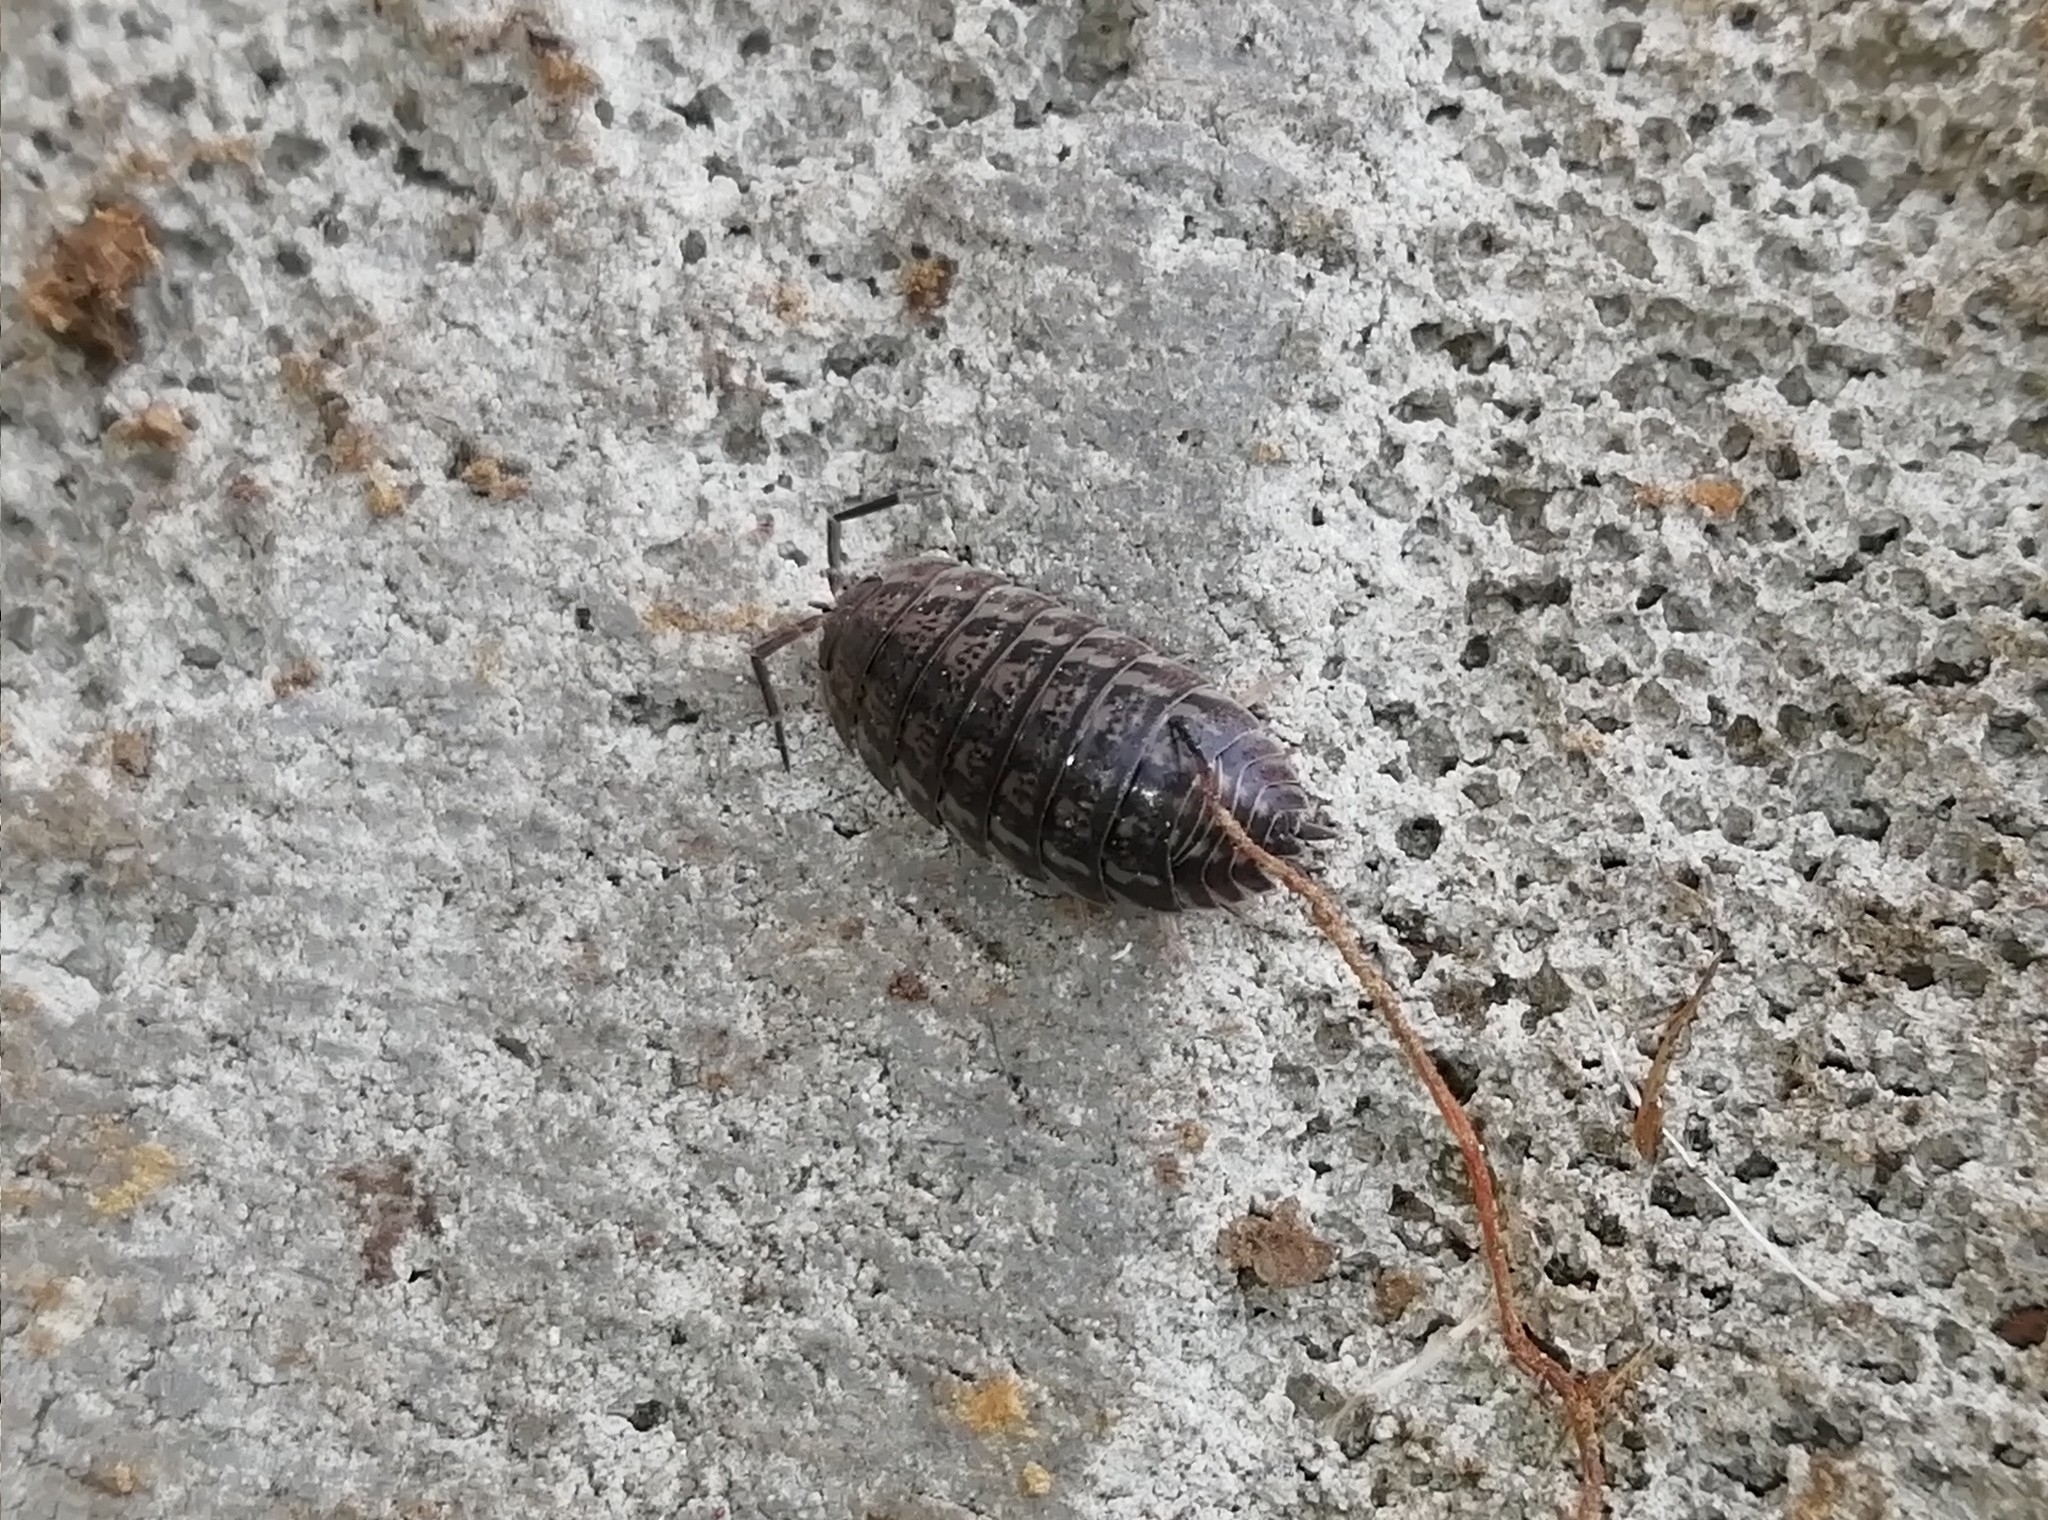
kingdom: Animalia
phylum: Arthropoda
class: Malacostraca
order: Isopoda
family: Trachelipodidae
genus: Trachelipus
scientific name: Trachelipus rathkii
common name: Isopod
